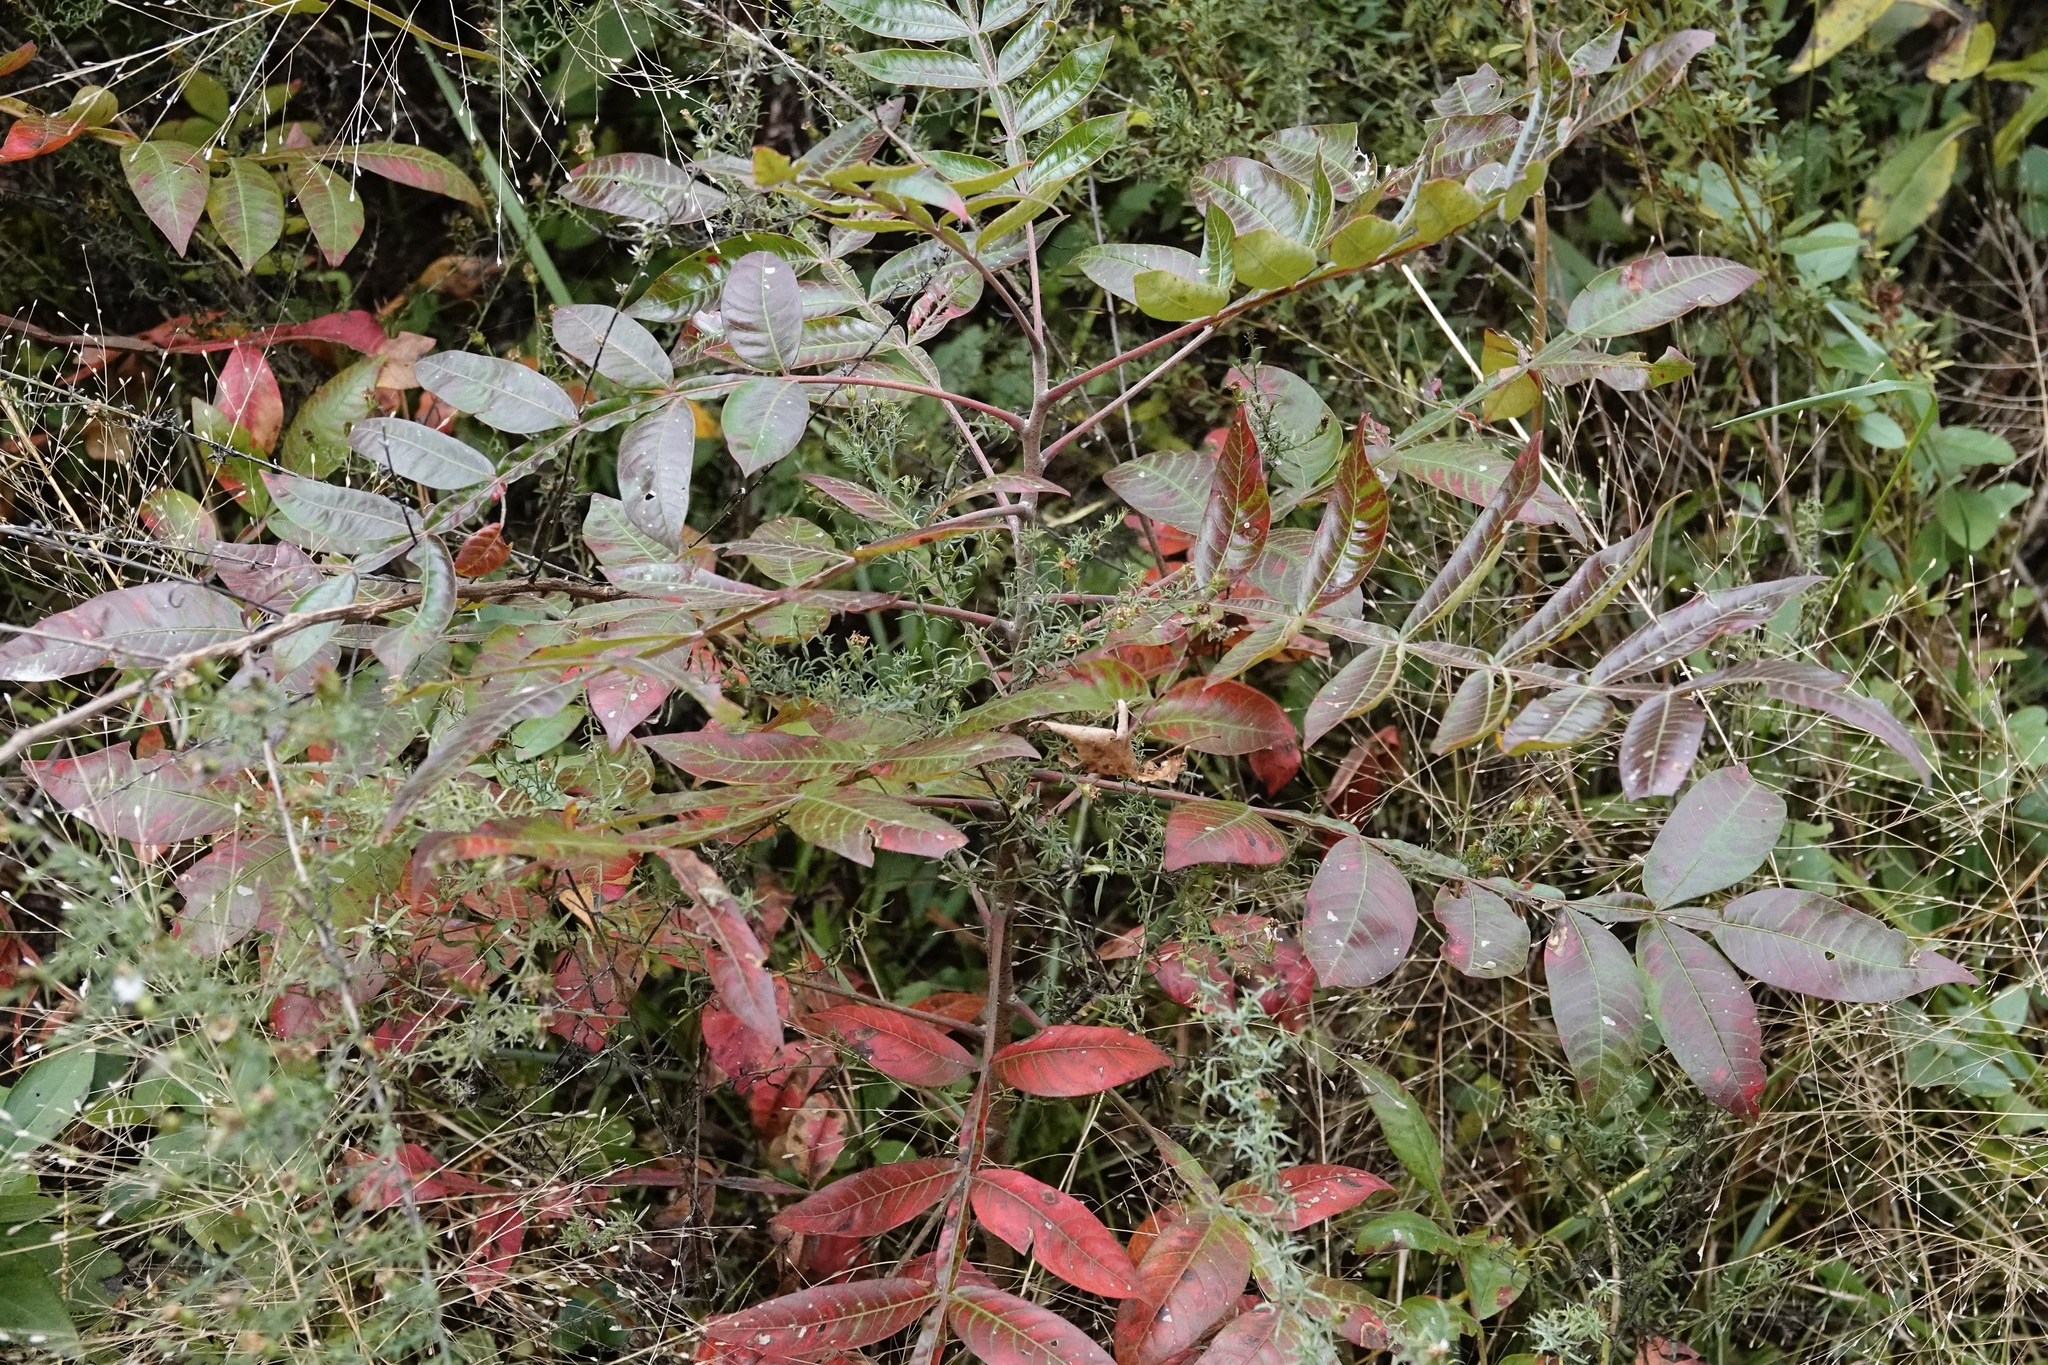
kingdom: Plantae
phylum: Tracheophyta
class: Magnoliopsida
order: Sapindales
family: Anacardiaceae
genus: Rhus
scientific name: Rhus copallina
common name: Shining sumac
